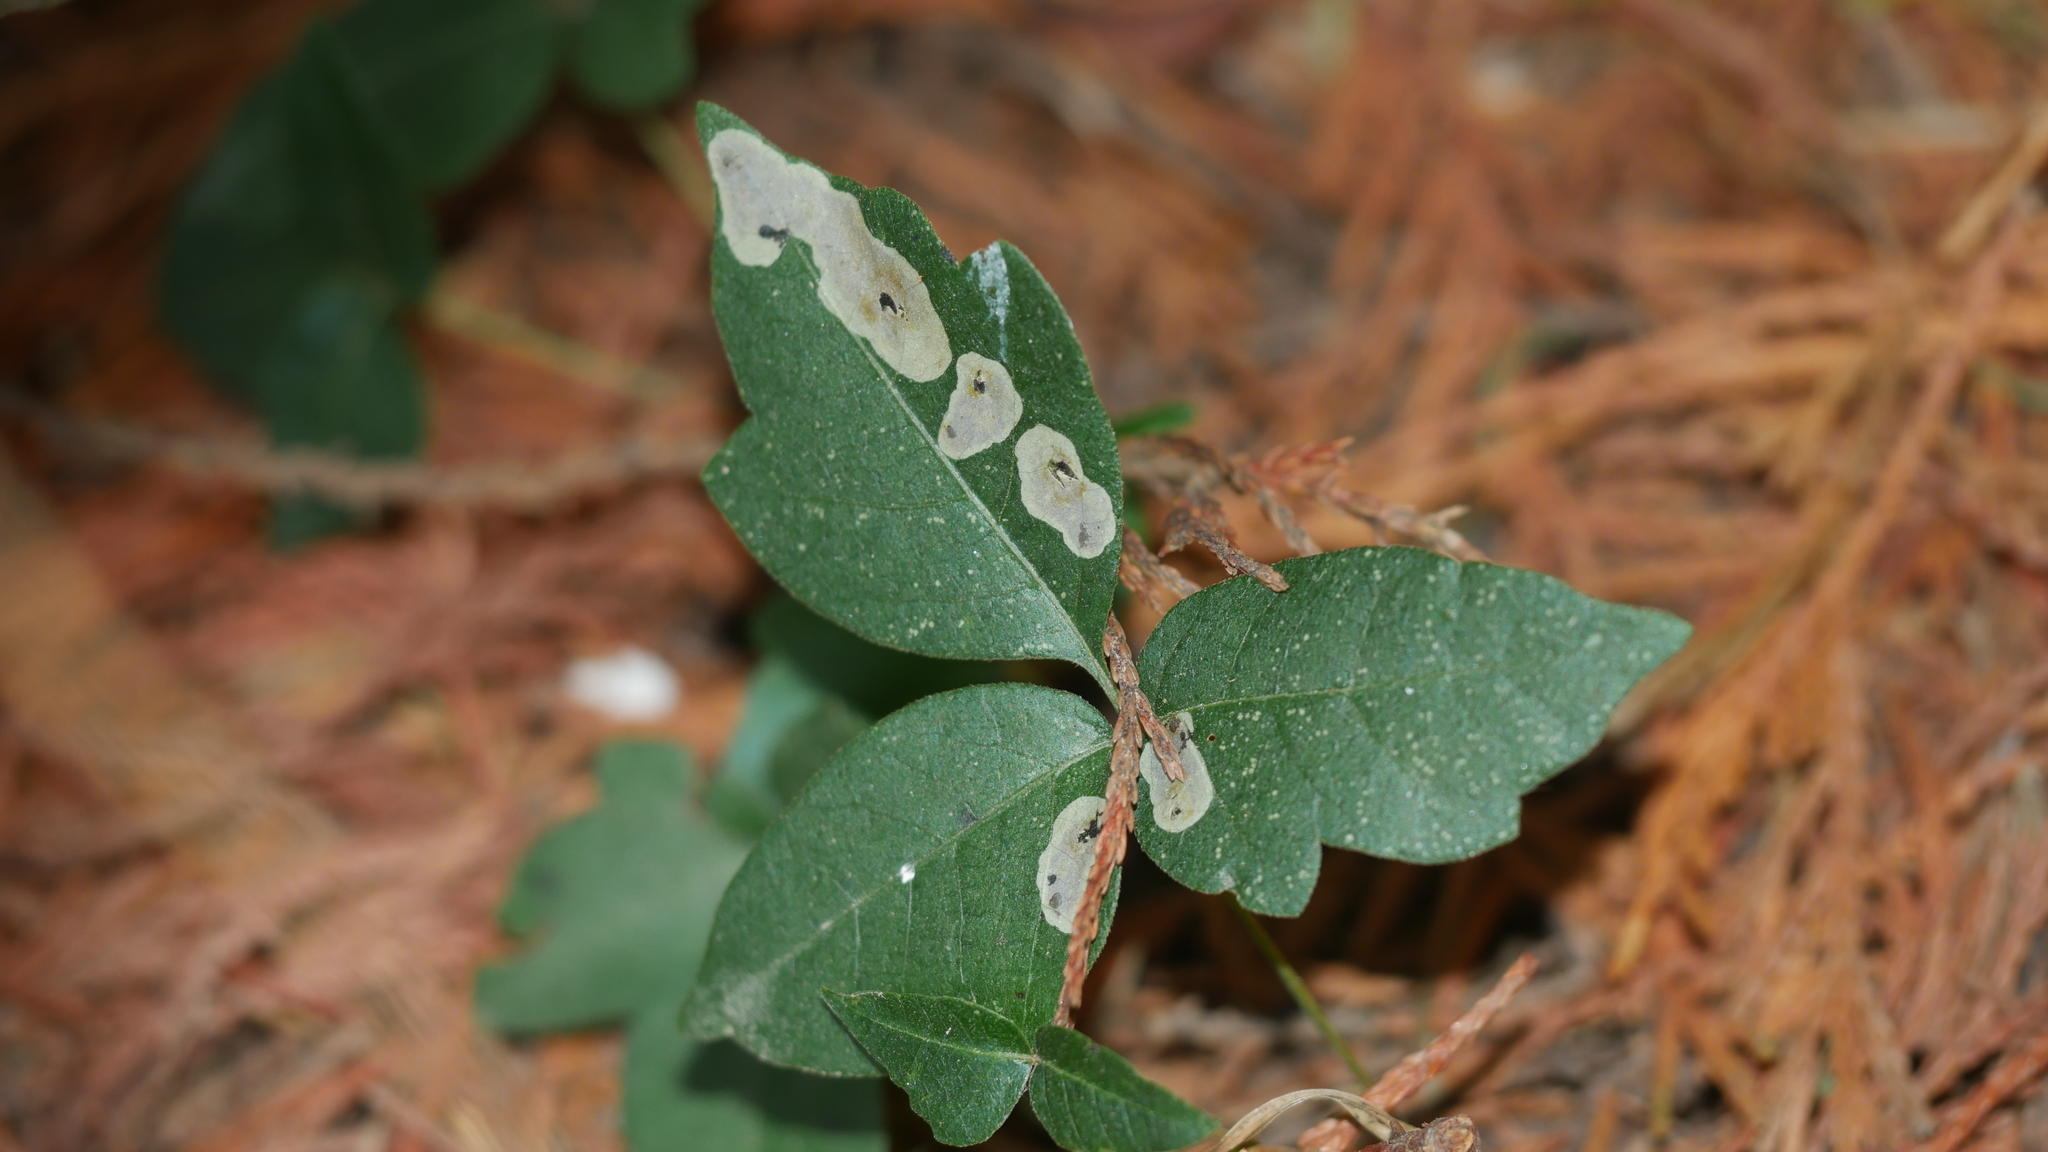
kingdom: Animalia
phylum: Arthropoda
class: Insecta
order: Lepidoptera
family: Gracillariidae
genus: Cameraria
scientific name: Cameraria guttifinitella
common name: Poison ivy leaf-miner moth
